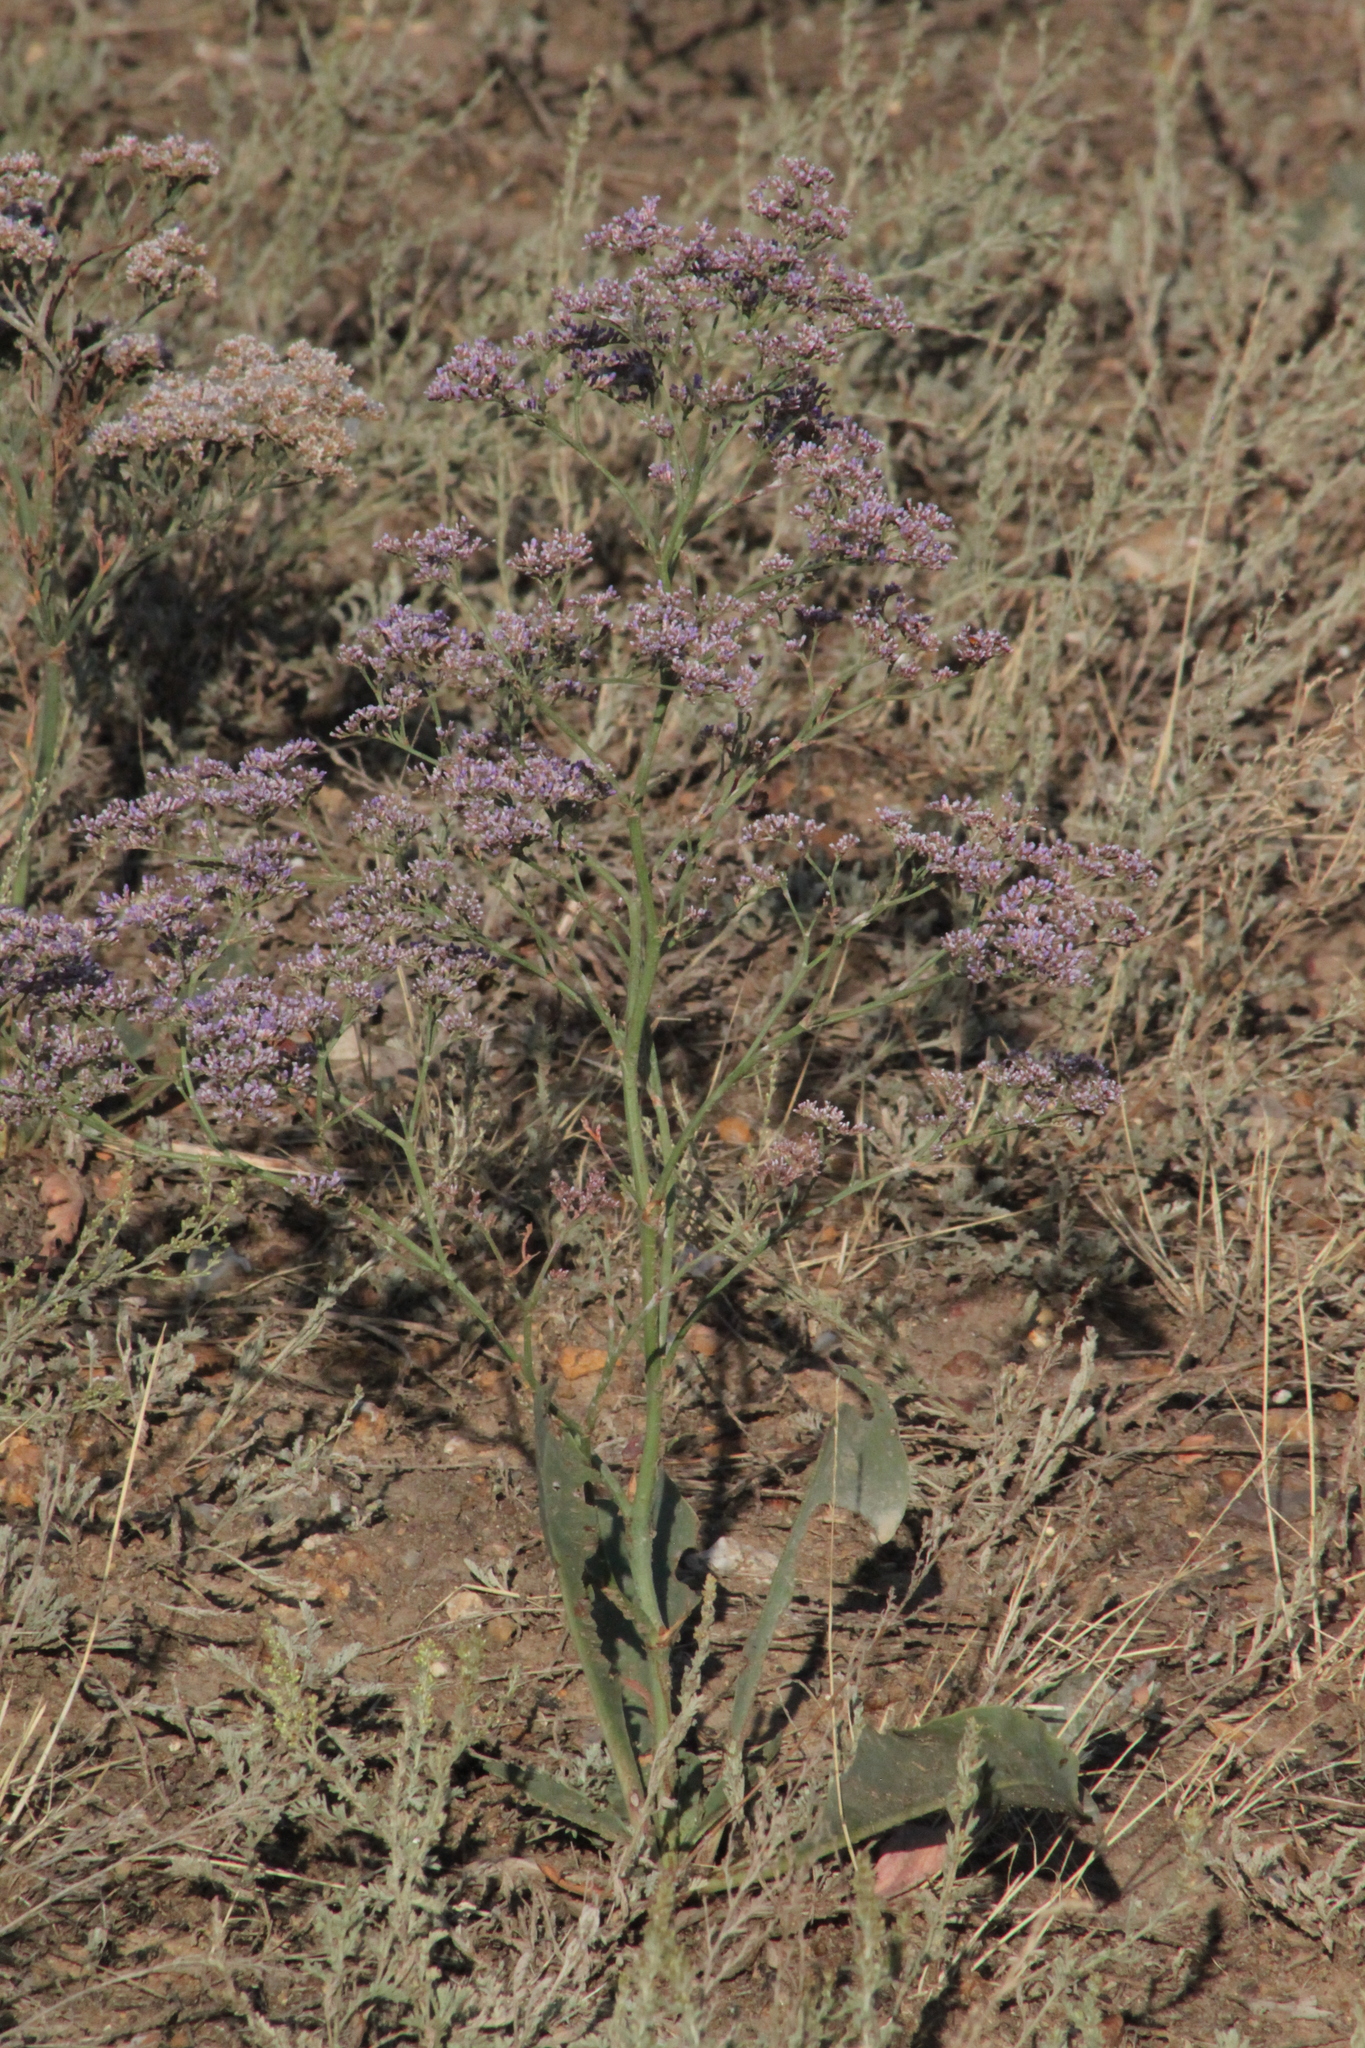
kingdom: Plantae
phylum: Tracheophyta
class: Magnoliopsida
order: Caryophyllales
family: Plumbaginaceae
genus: Limonium
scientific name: Limonium gmelini
